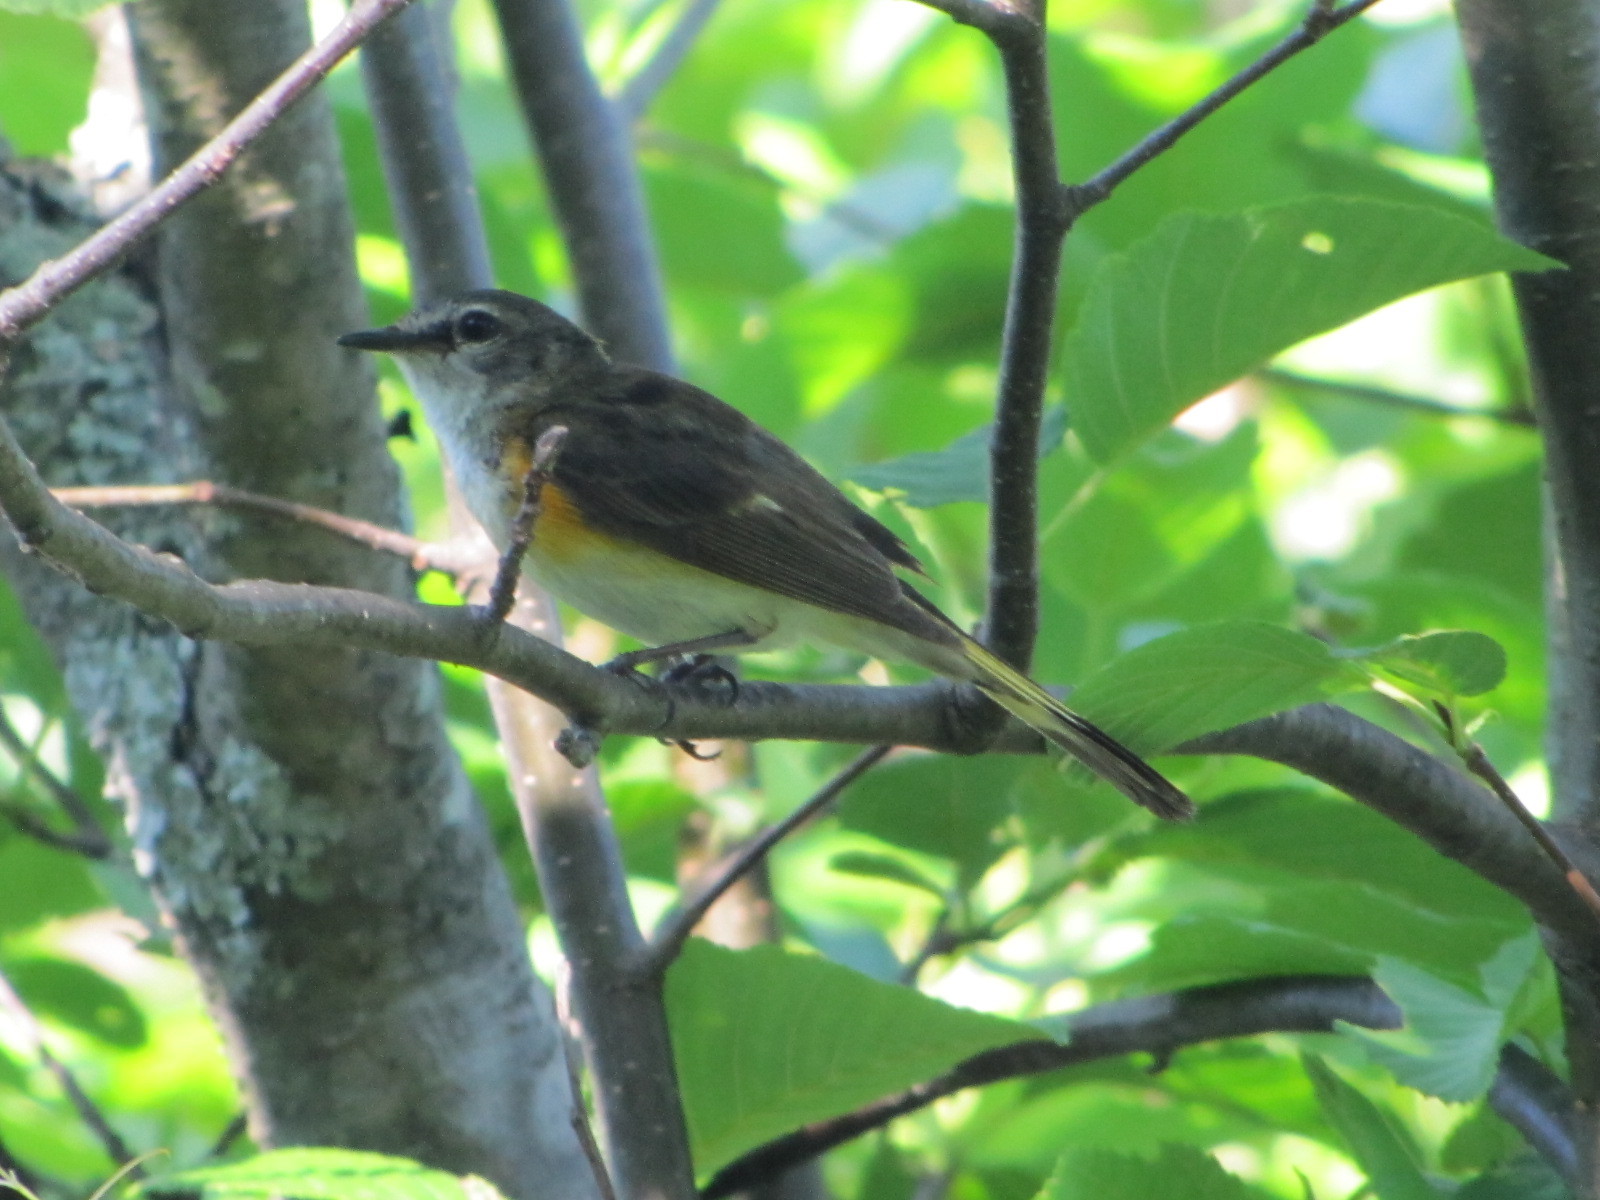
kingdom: Animalia
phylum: Chordata
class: Aves
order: Passeriformes
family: Parulidae
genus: Setophaga
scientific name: Setophaga ruticilla
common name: American redstart
